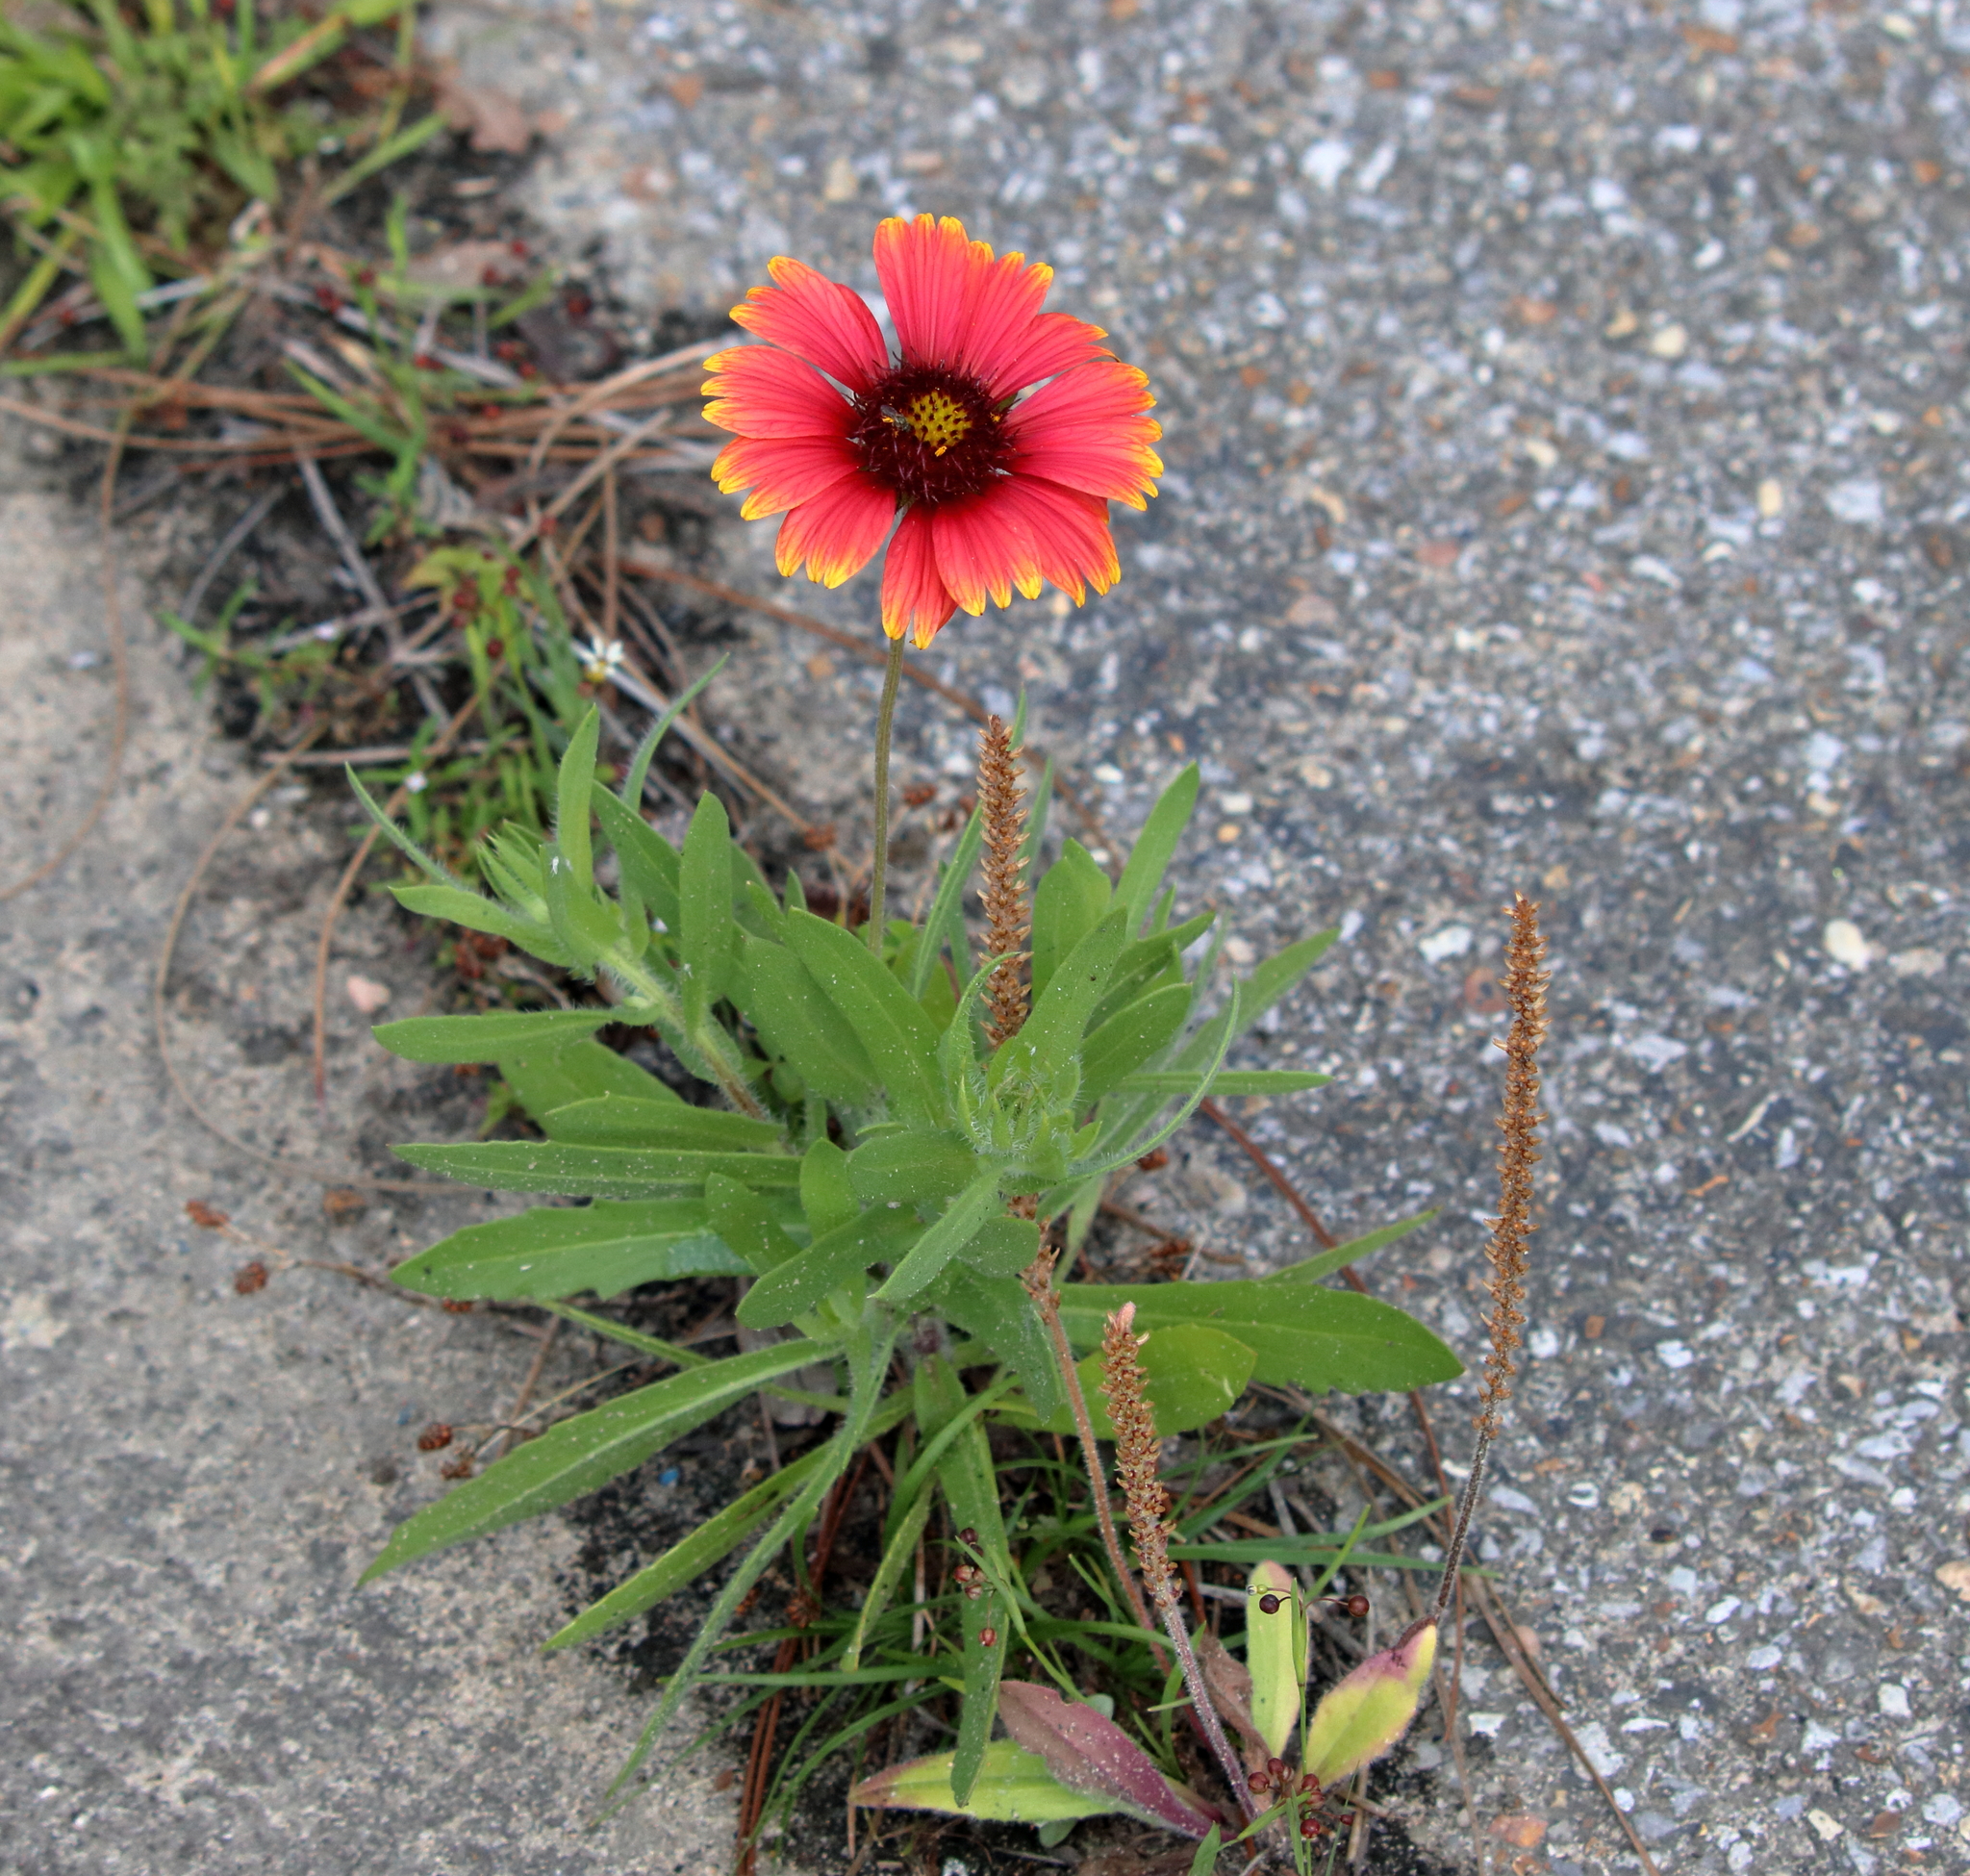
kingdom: Plantae
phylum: Tracheophyta
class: Magnoliopsida
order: Asterales
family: Asteraceae
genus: Gaillardia
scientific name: Gaillardia pulchella
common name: Firewheel
